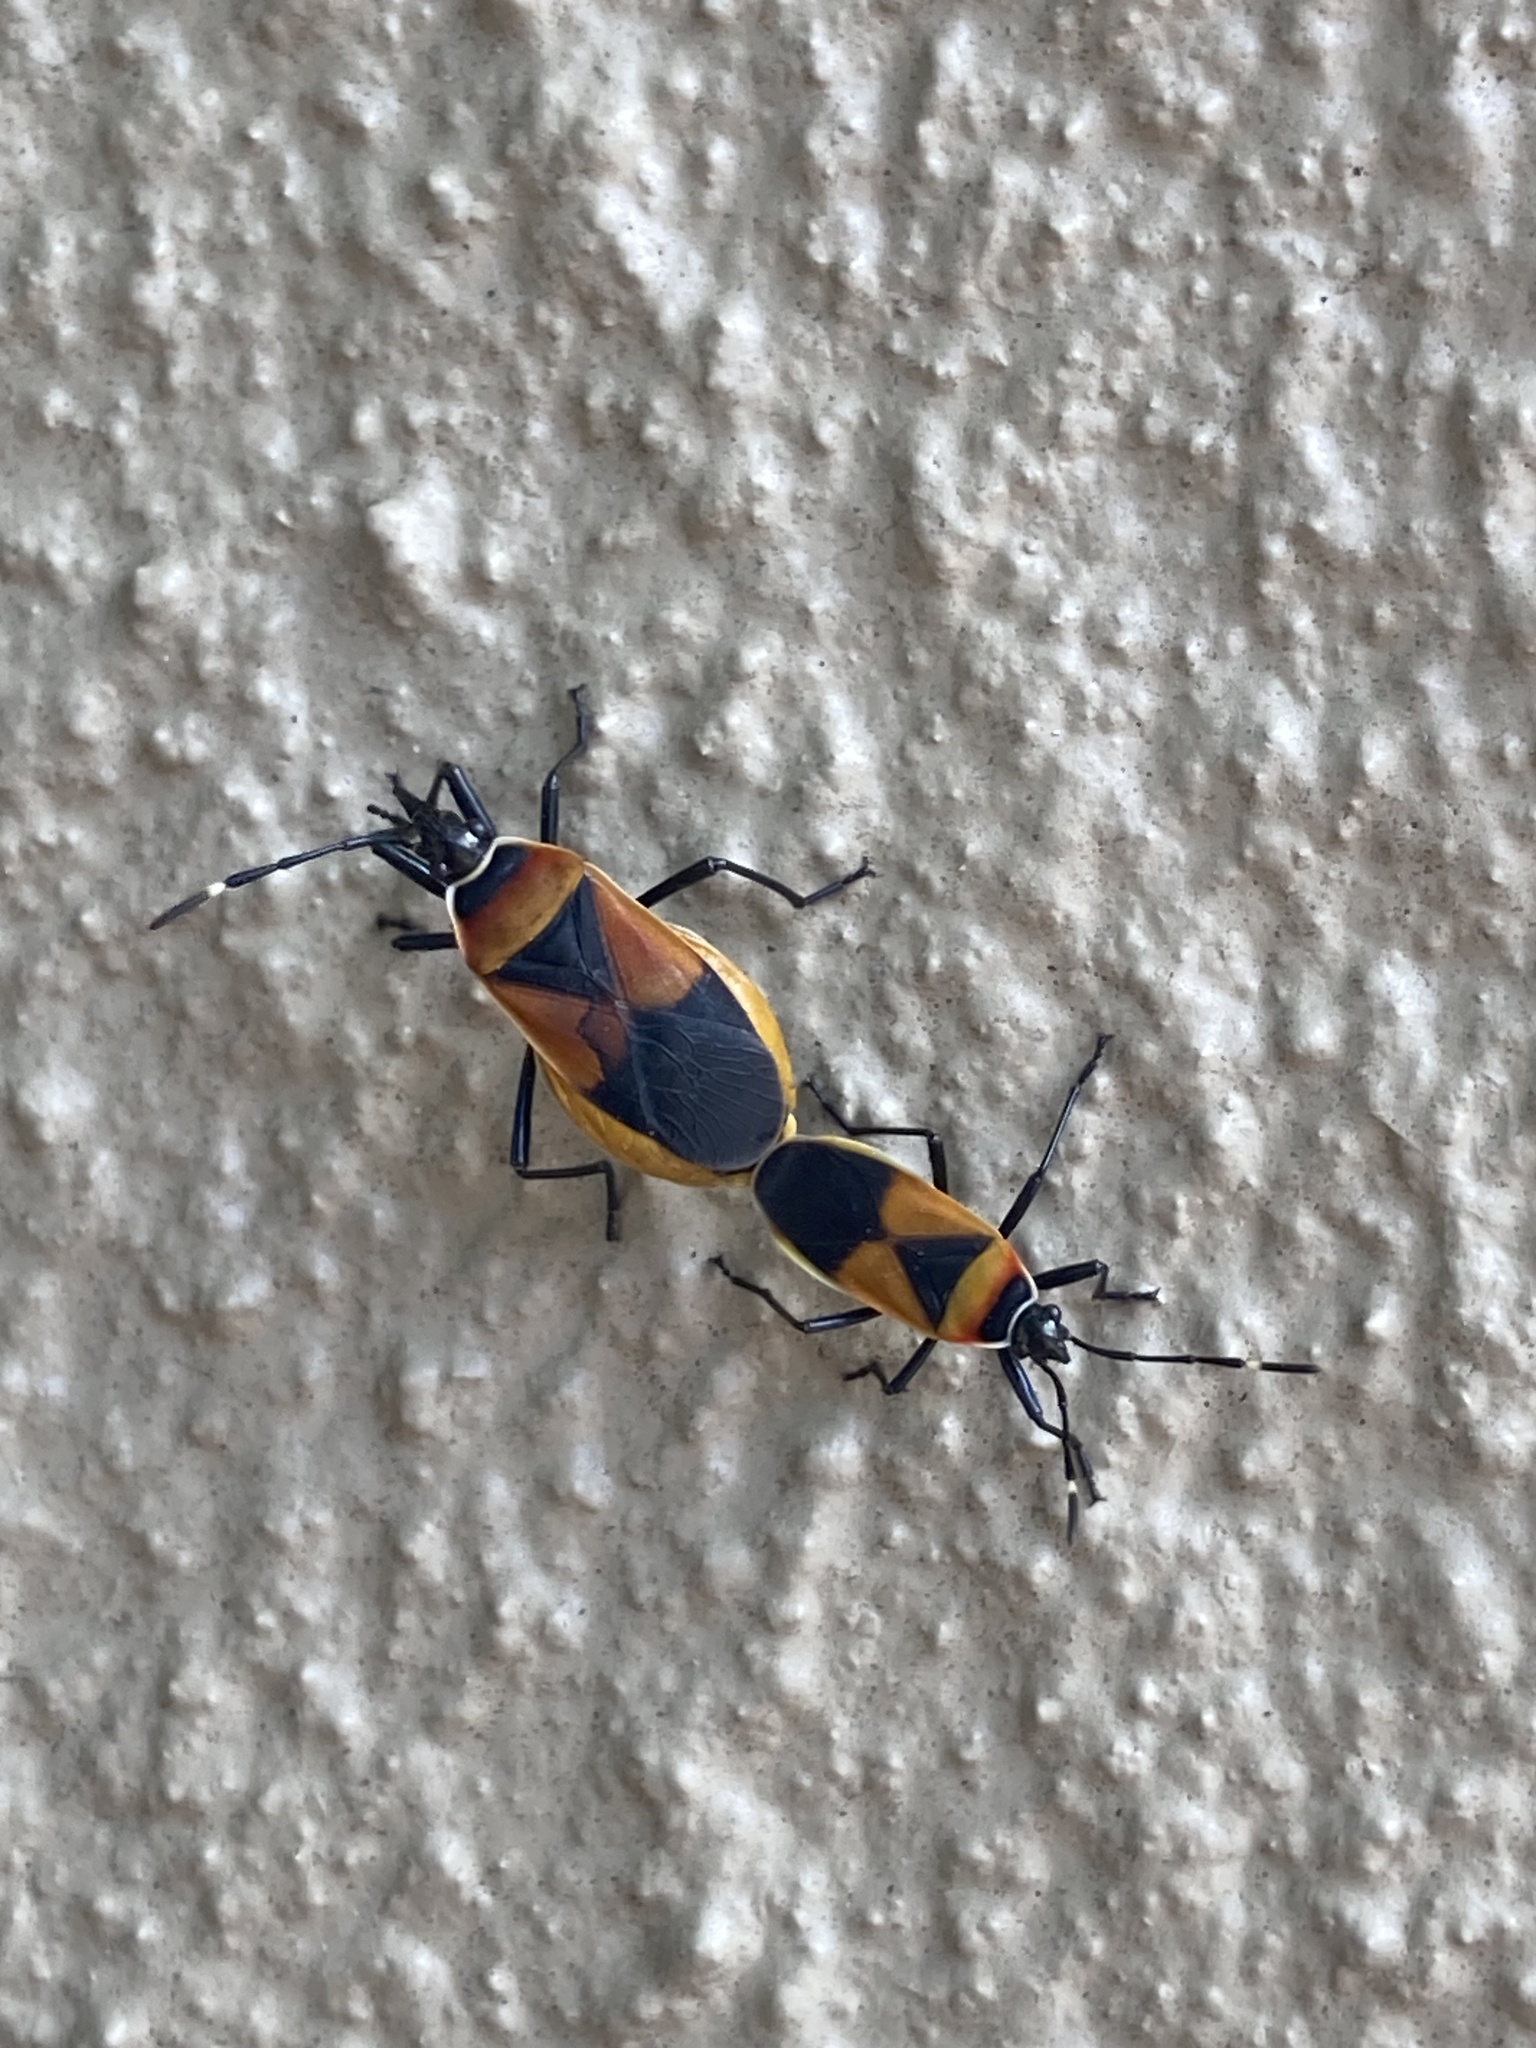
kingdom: Animalia
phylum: Arthropoda
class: Insecta
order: Hemiptera
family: Pyrrhocoridae
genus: Dindymus
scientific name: Dindymus
